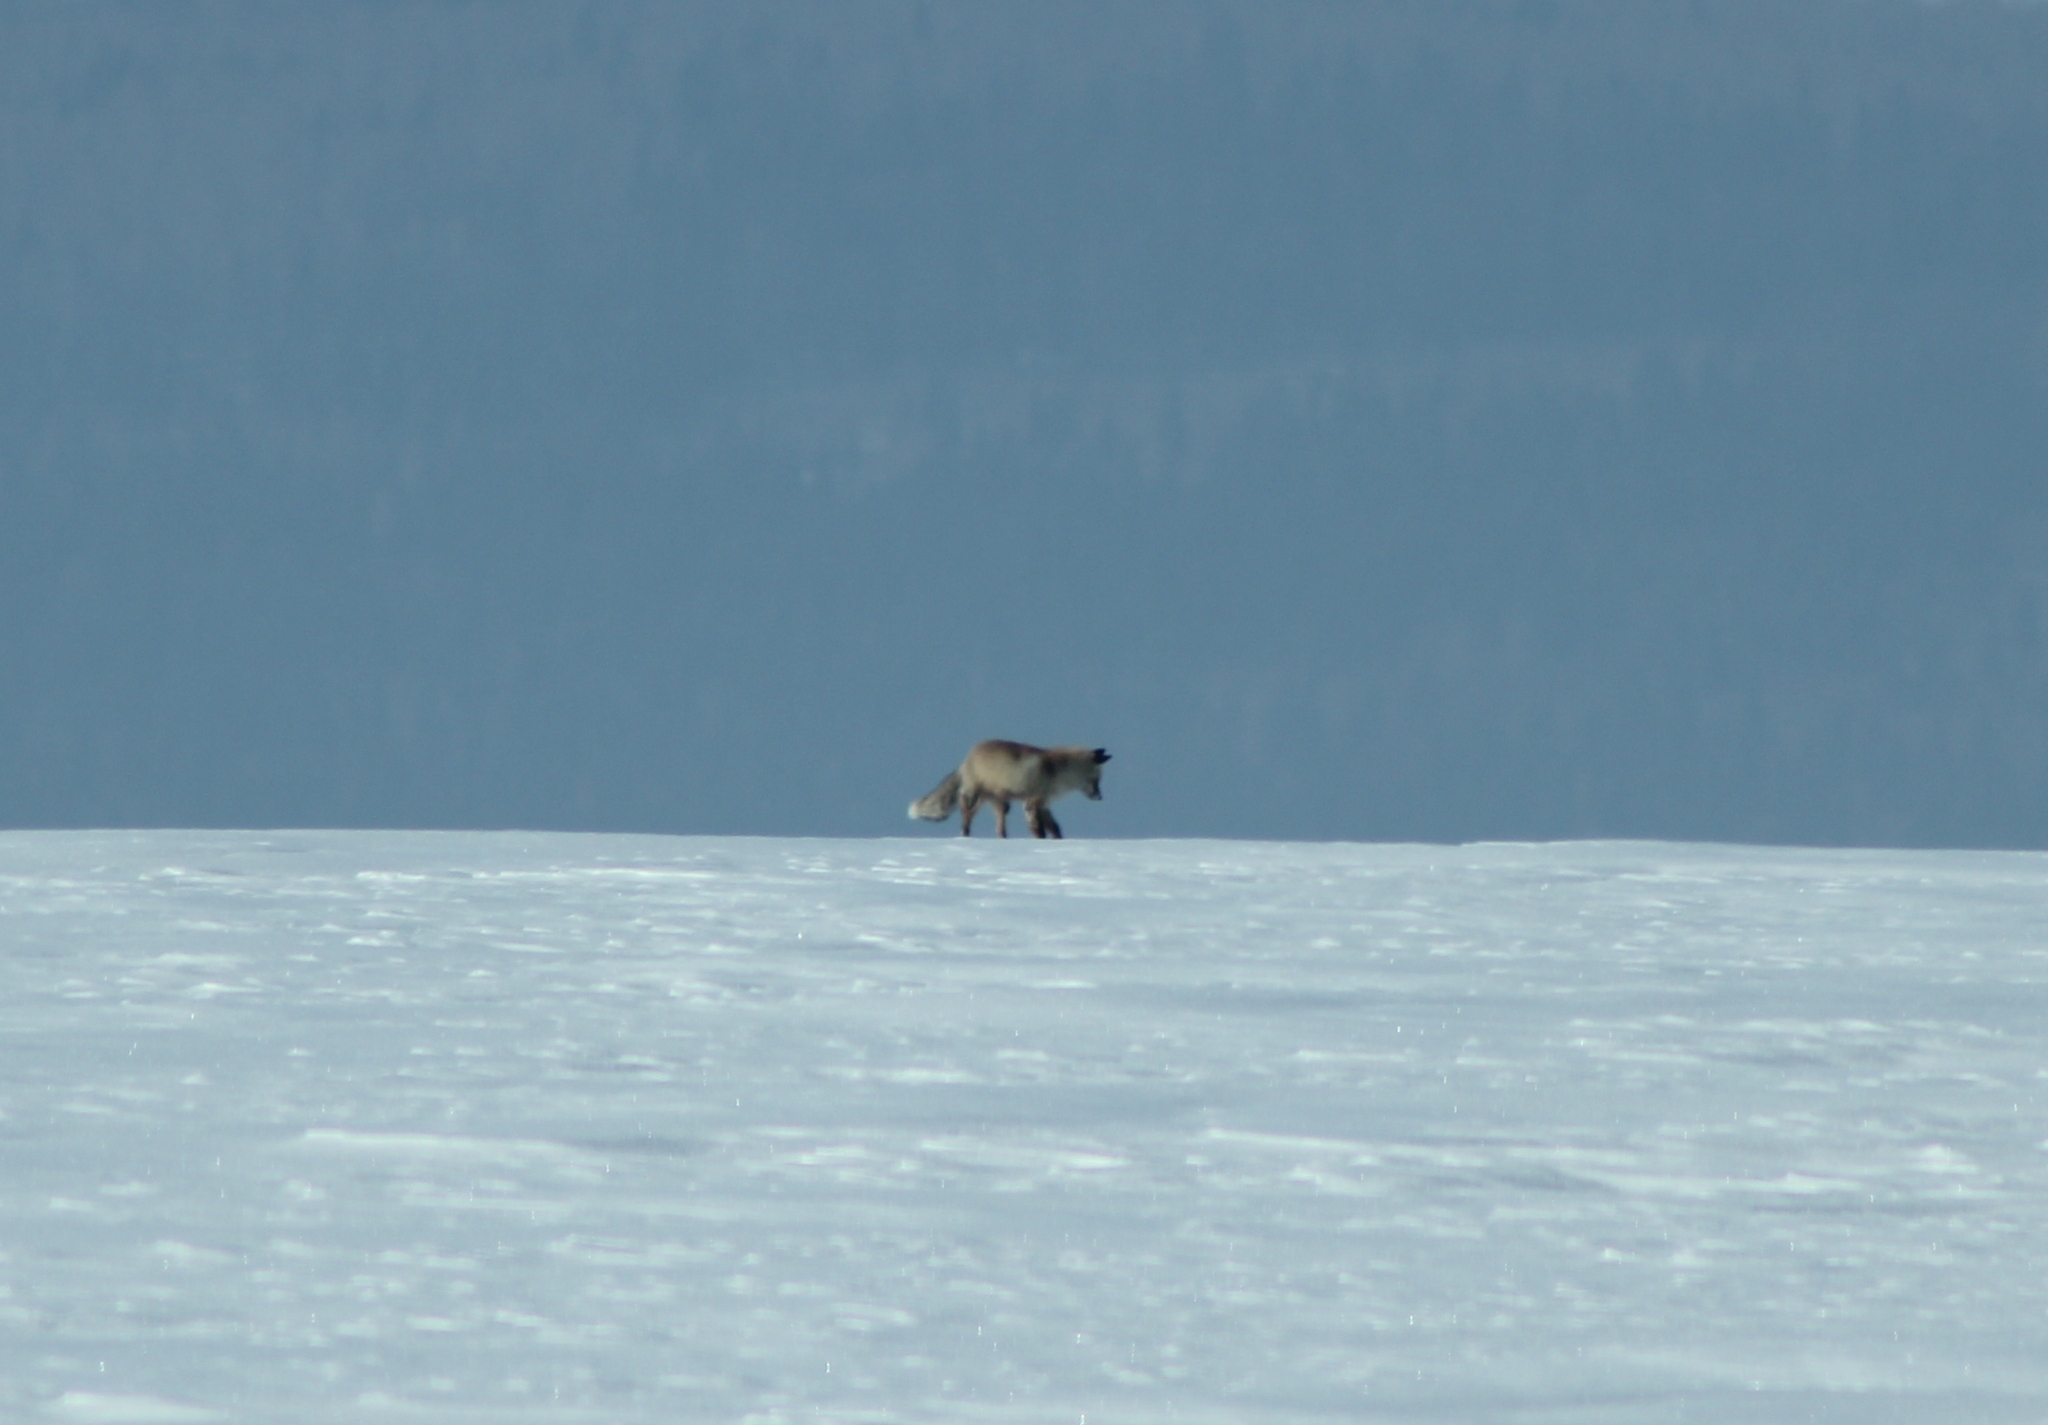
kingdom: Animalia
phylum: Chordata
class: Mammalia
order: Carnivora
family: Canidae
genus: Vulpes
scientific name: Vulpes vulpes
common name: Red fox
